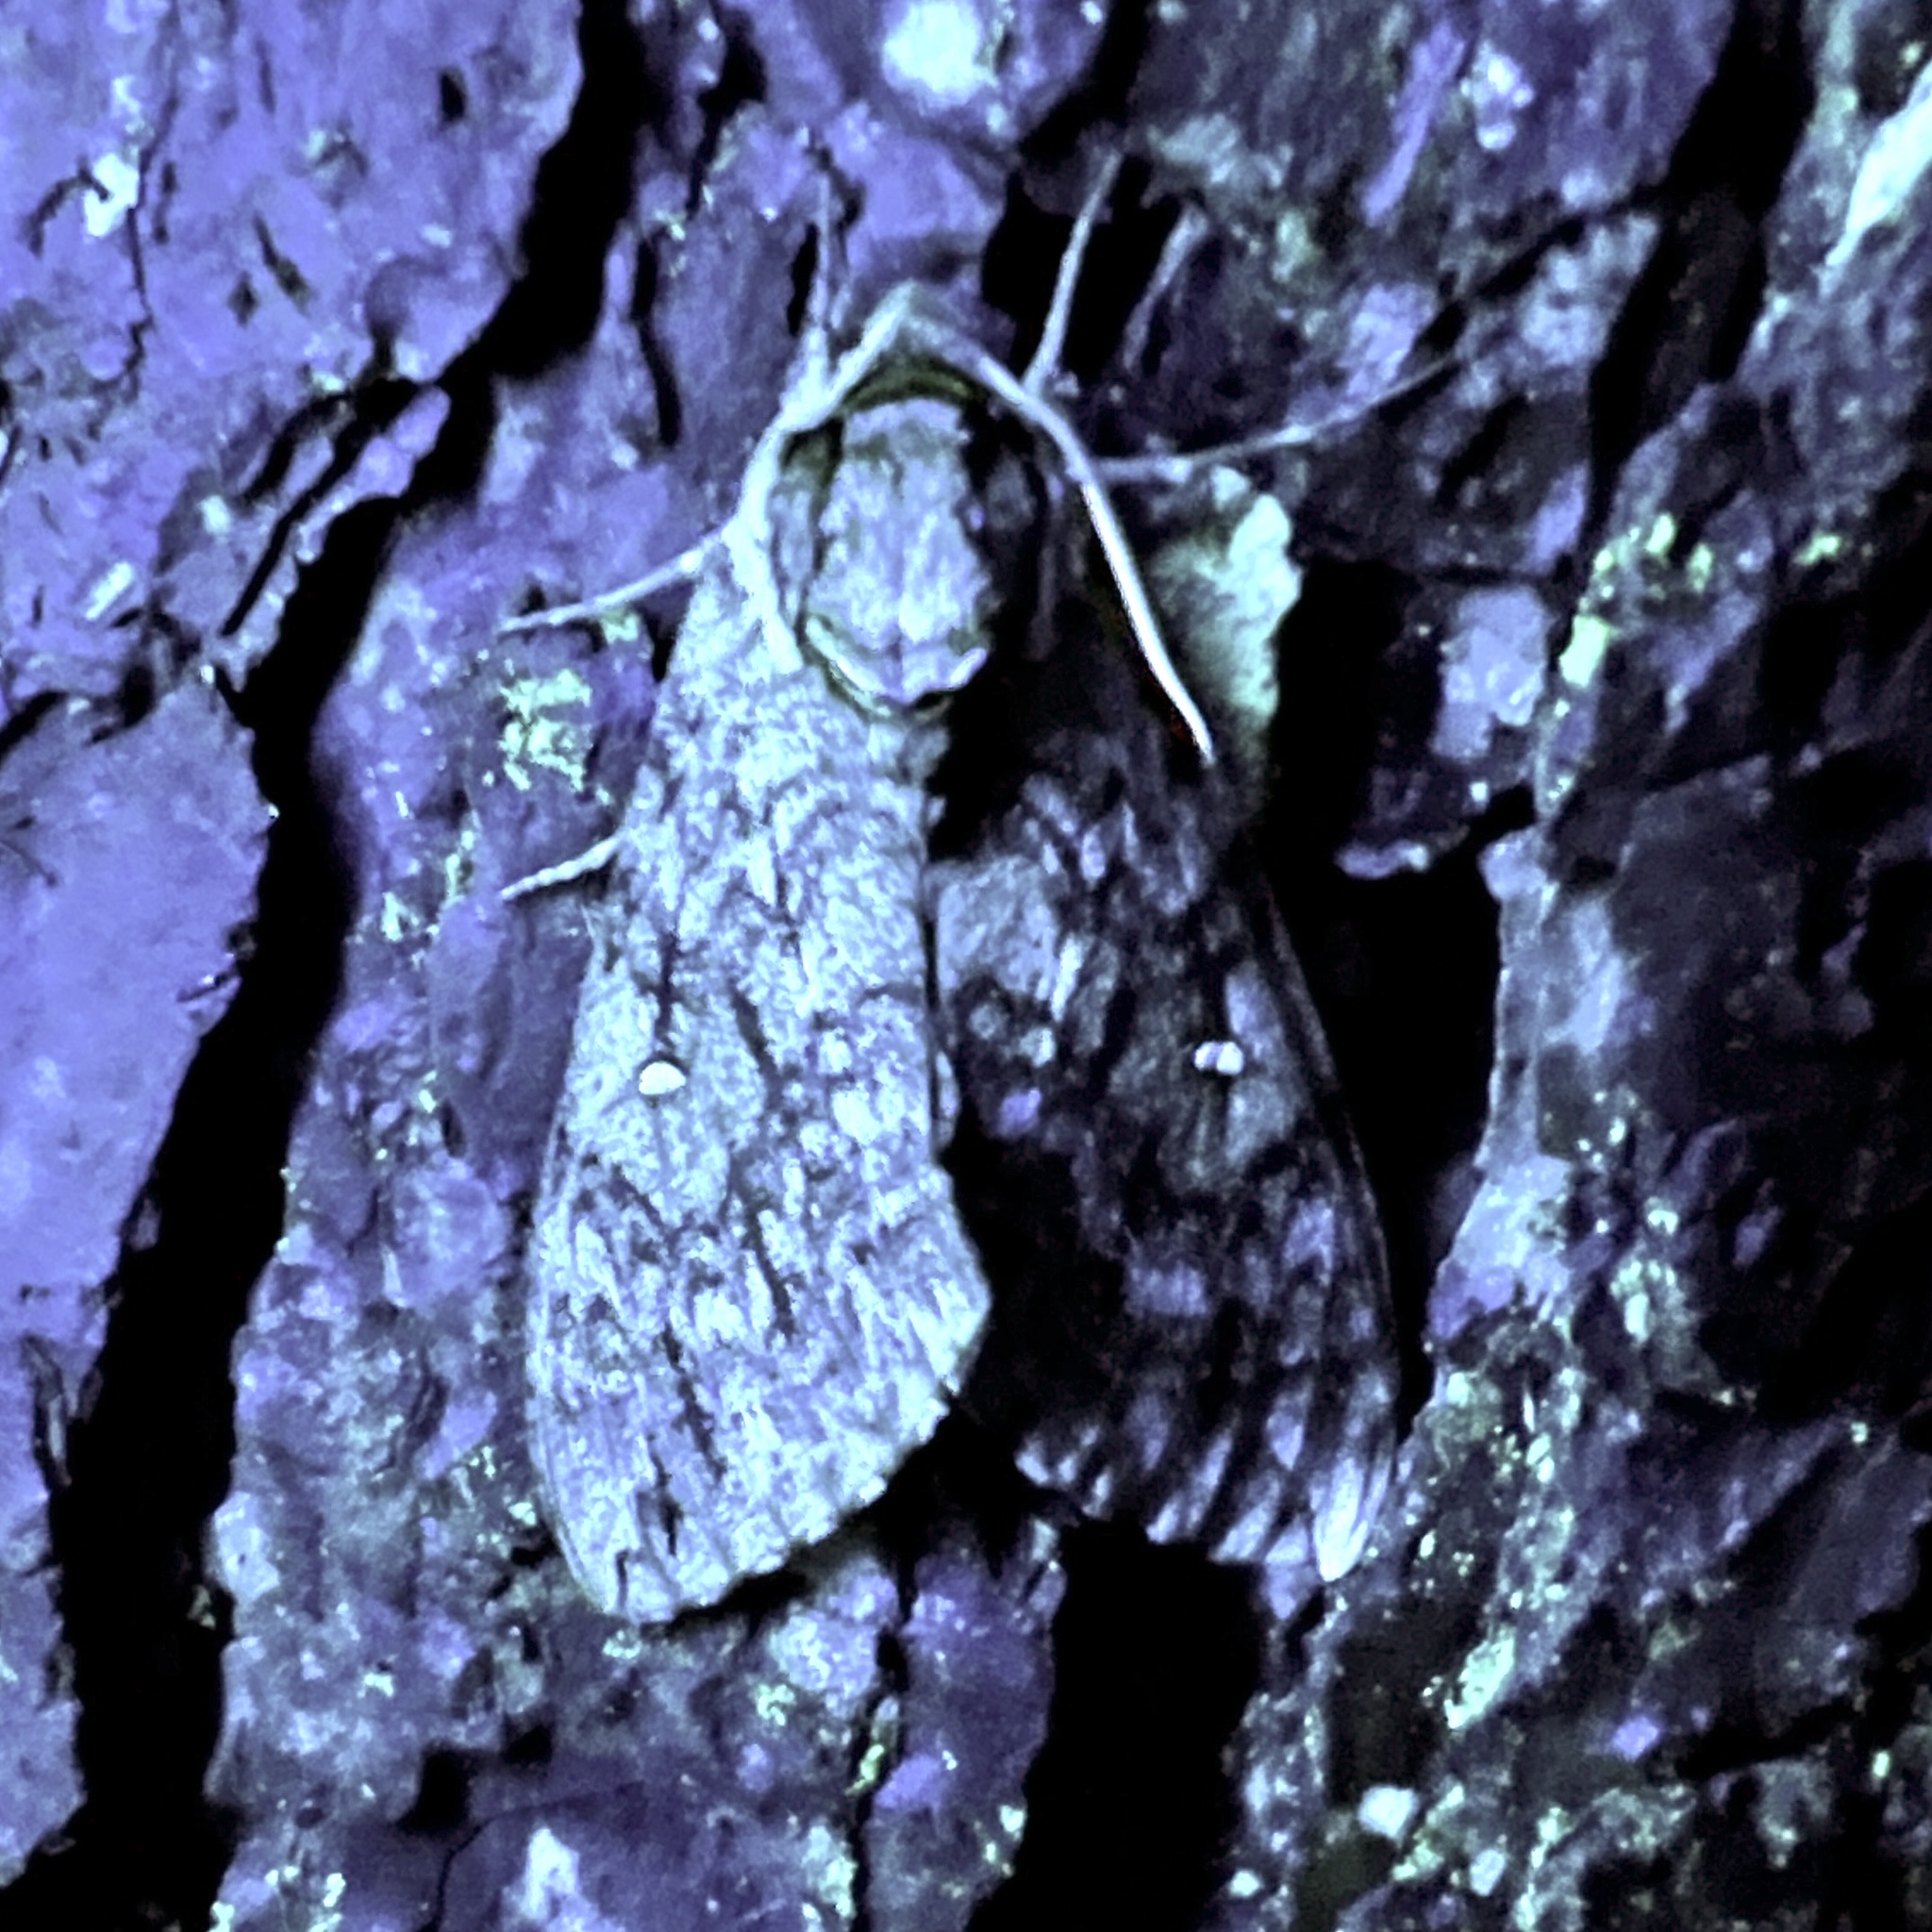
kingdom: Animalia
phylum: Arthropoda
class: Insecta
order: Lepidoptera
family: Sphingidae
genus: Ceratomia
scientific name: Ceratomia undulosa
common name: Waved sphinx
